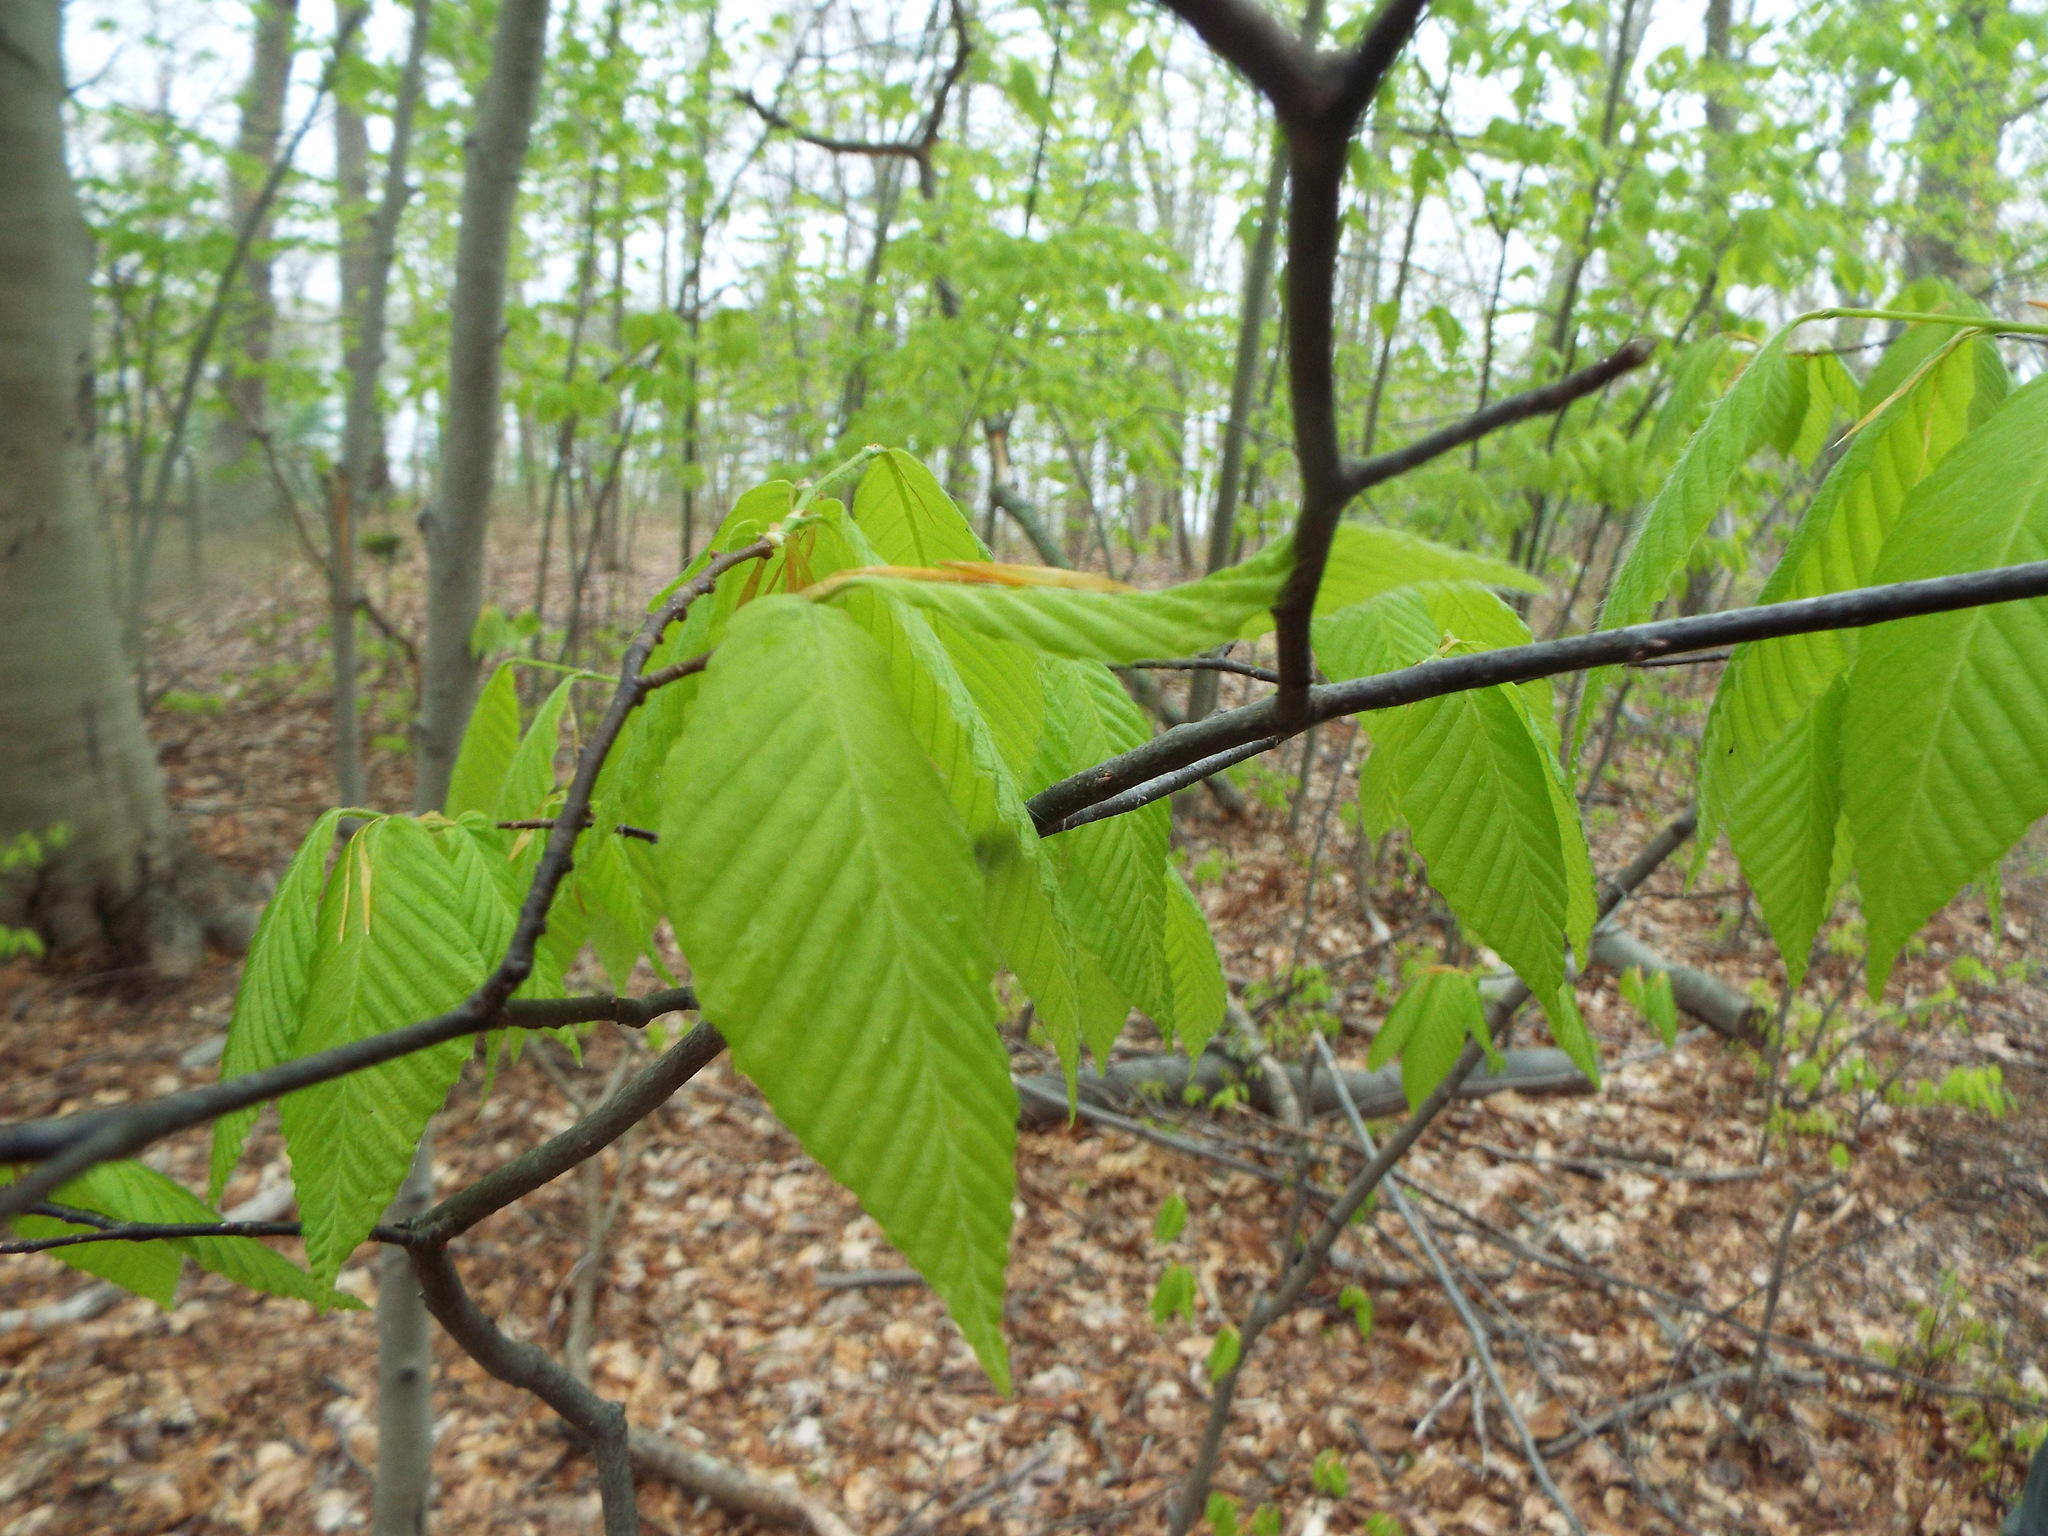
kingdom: Plantae
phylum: Tracheophyta
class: Magnoliopsida
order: Fagales
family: Fagaceae
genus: Fagus
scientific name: Fagus grandifolia
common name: American beech
